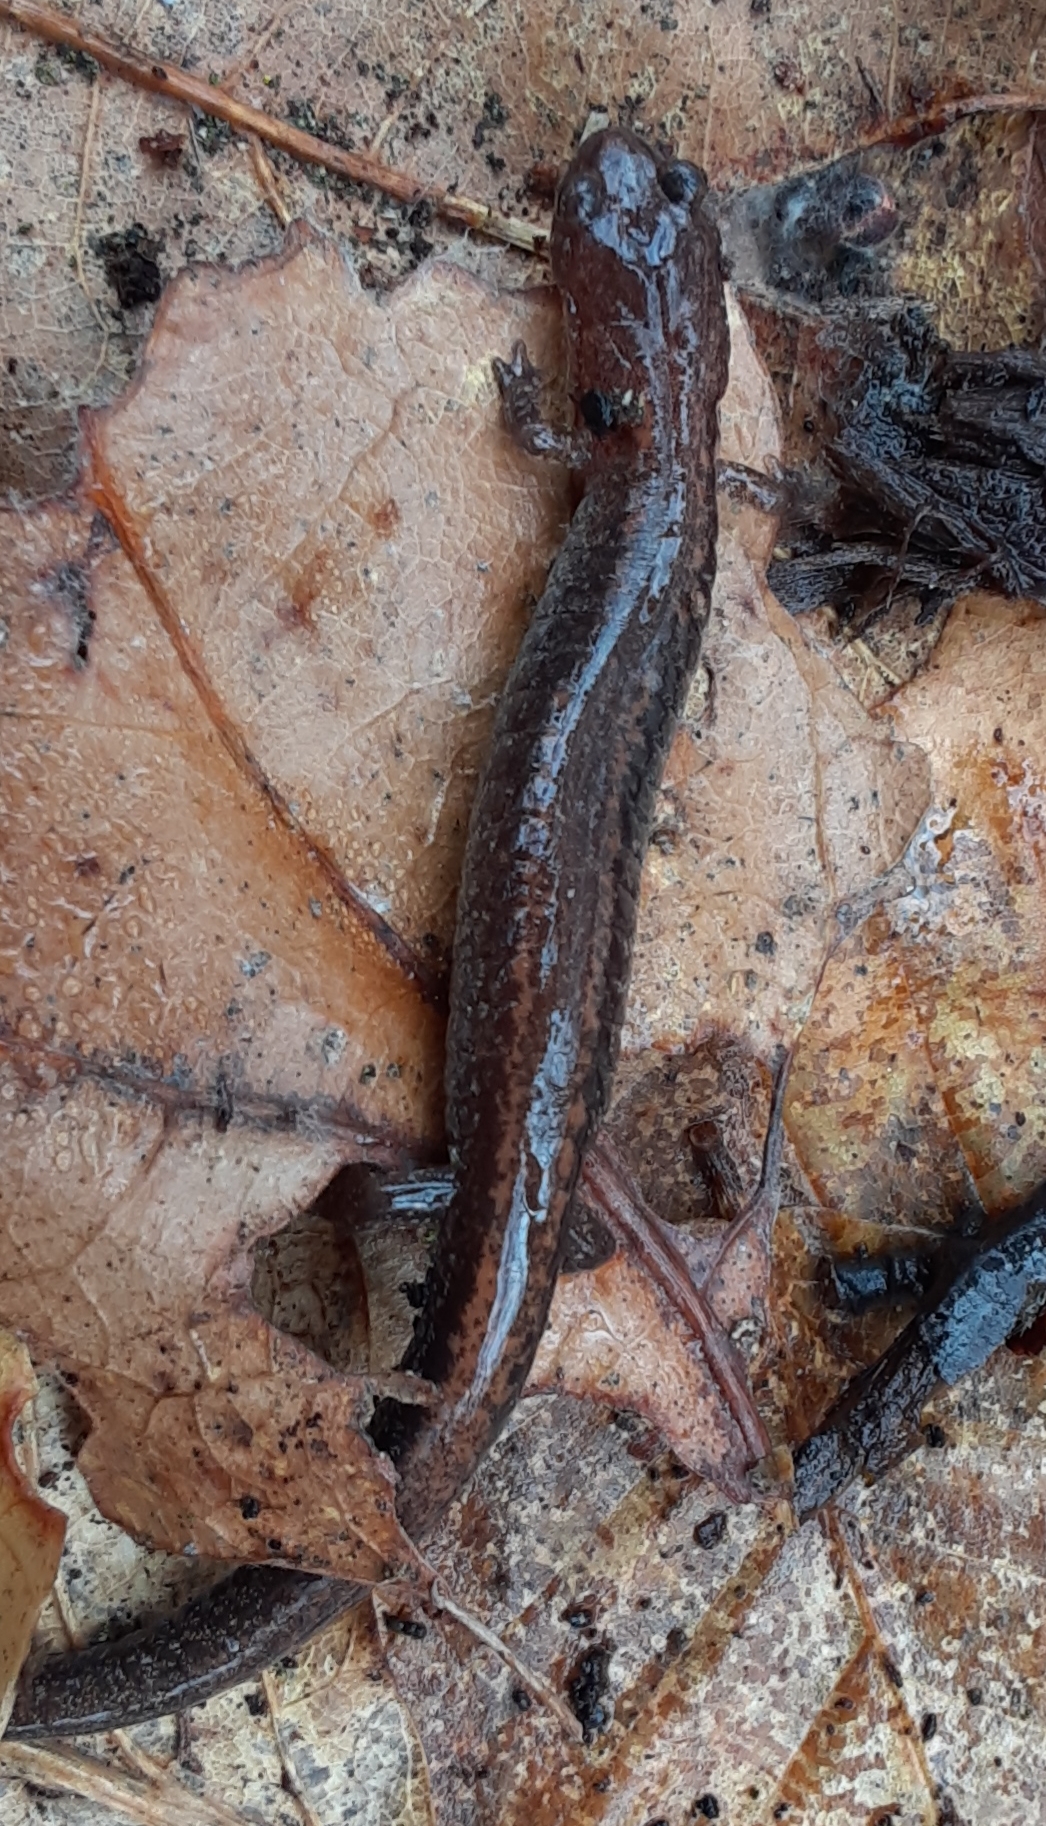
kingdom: Animalia
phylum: Chordata
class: Amphibia
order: Caudata
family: Plethodontidae
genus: Plethodon
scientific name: Plethodon cinereus
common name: Redback salamander
